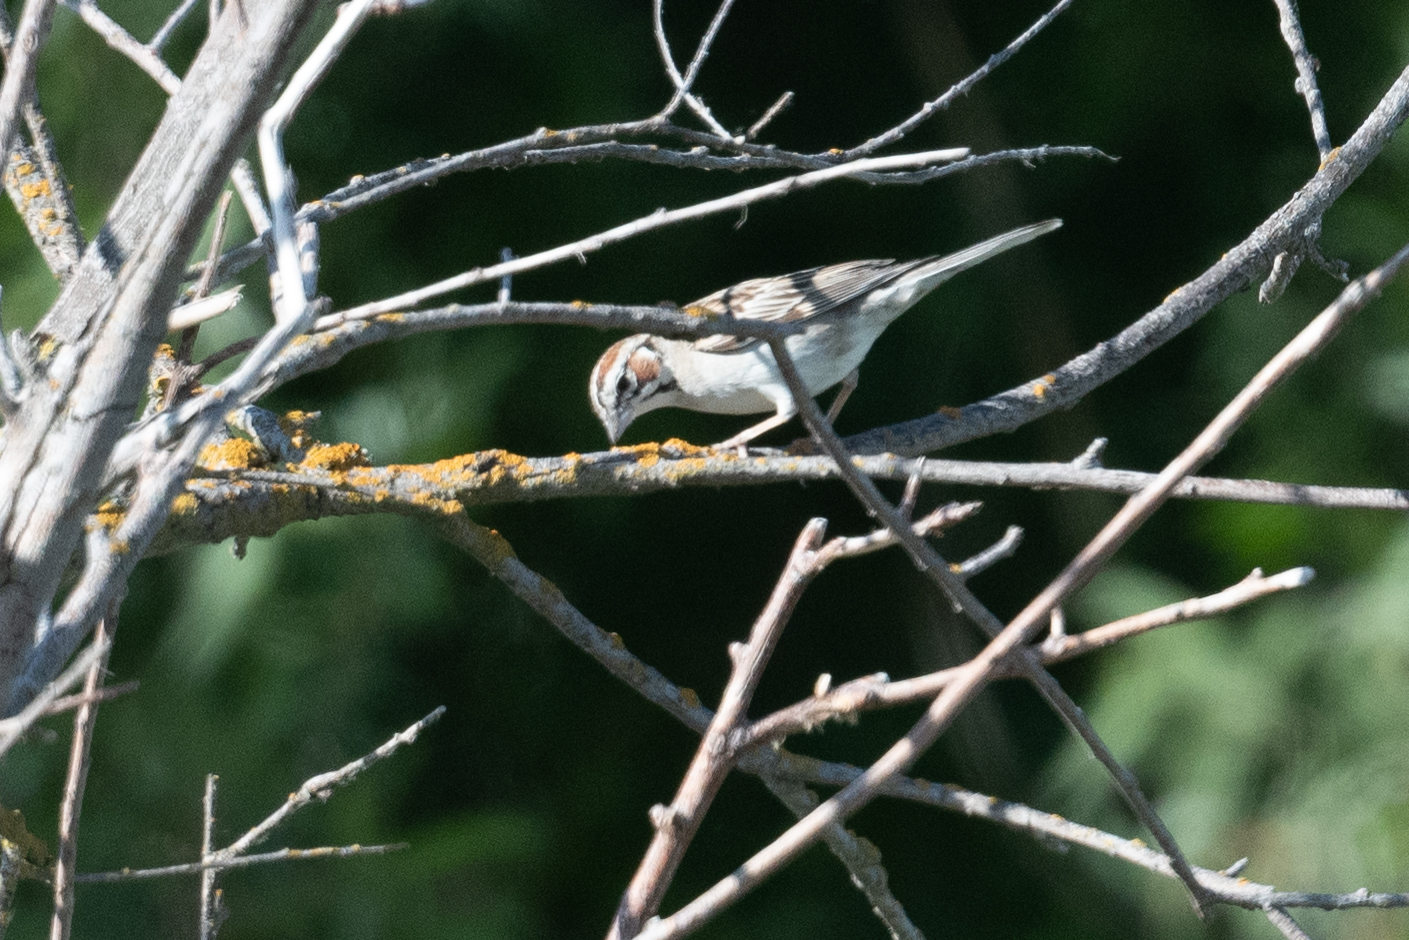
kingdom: Animalia
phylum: Chordata
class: Aves
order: Passeriformes
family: Passerellidae
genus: Chondestes
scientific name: Chondestes grammacus
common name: Lark sparrow
